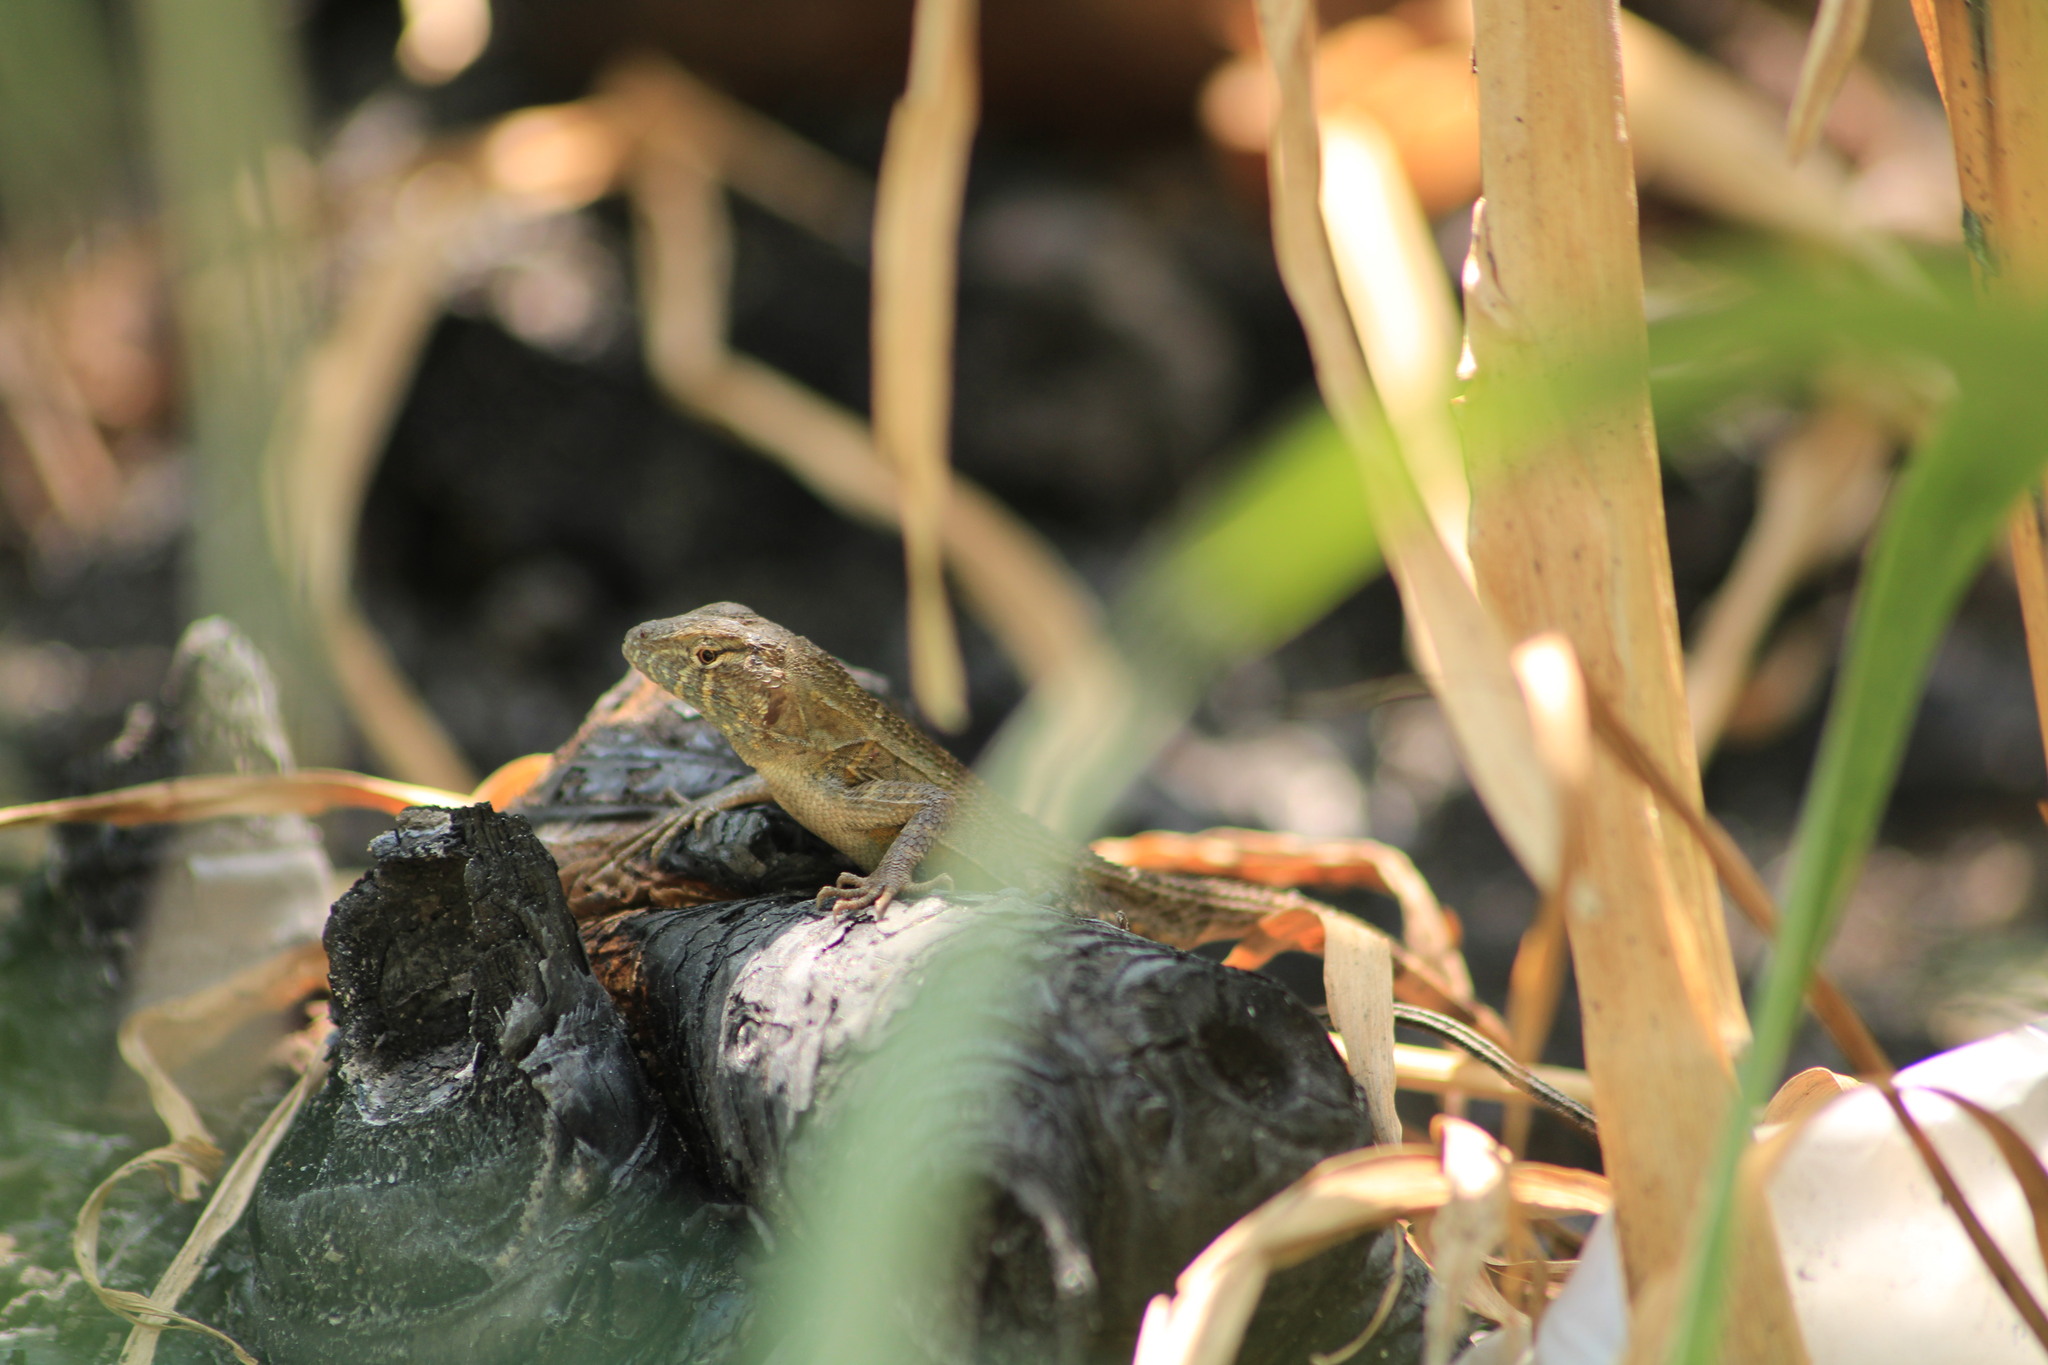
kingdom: Animalia
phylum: Chordata
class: Squamata
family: Phrynosomatidae
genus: Sceloporus
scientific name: Sceloporus utiformis
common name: Antesator
